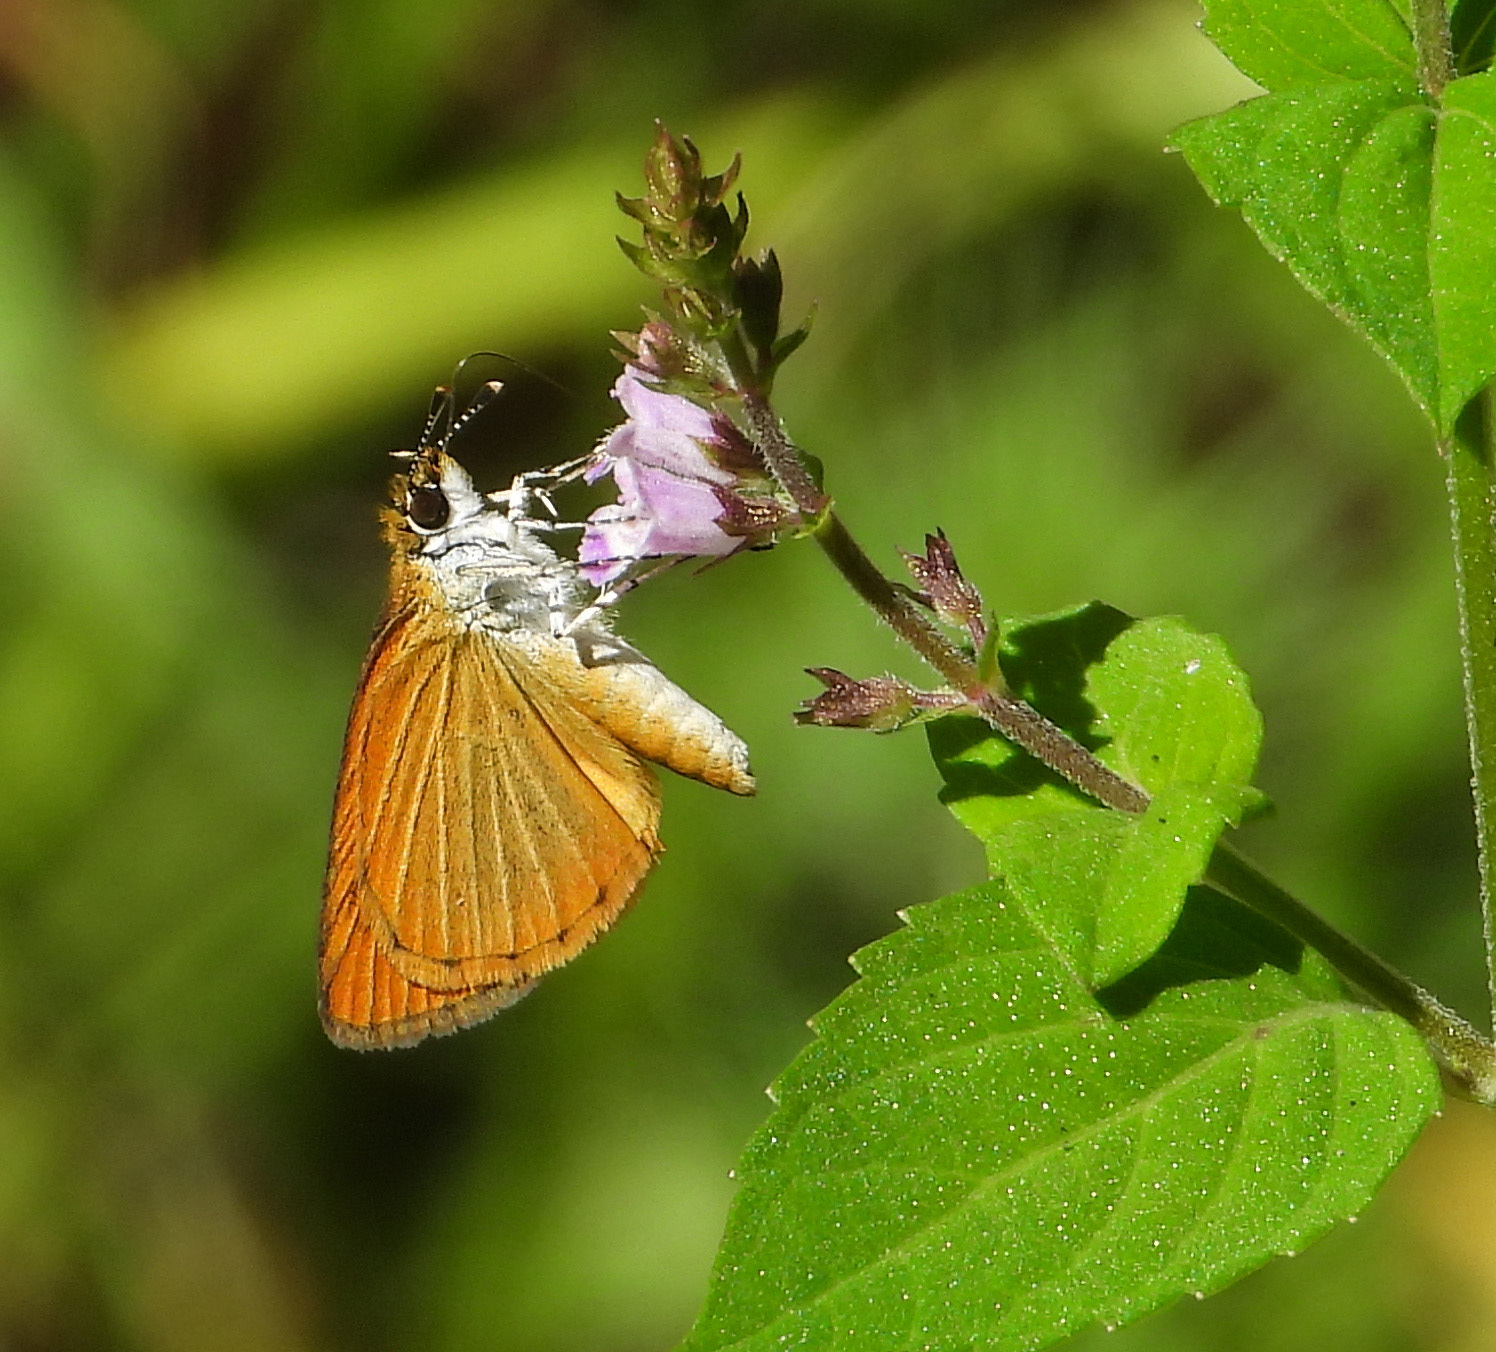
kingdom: Animalia
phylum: Arthropoda
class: Insecta
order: Lepidoptera
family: Hesperiidae
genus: Ancyloxypha
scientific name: Ancyloxypha numitor
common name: Least skipper
